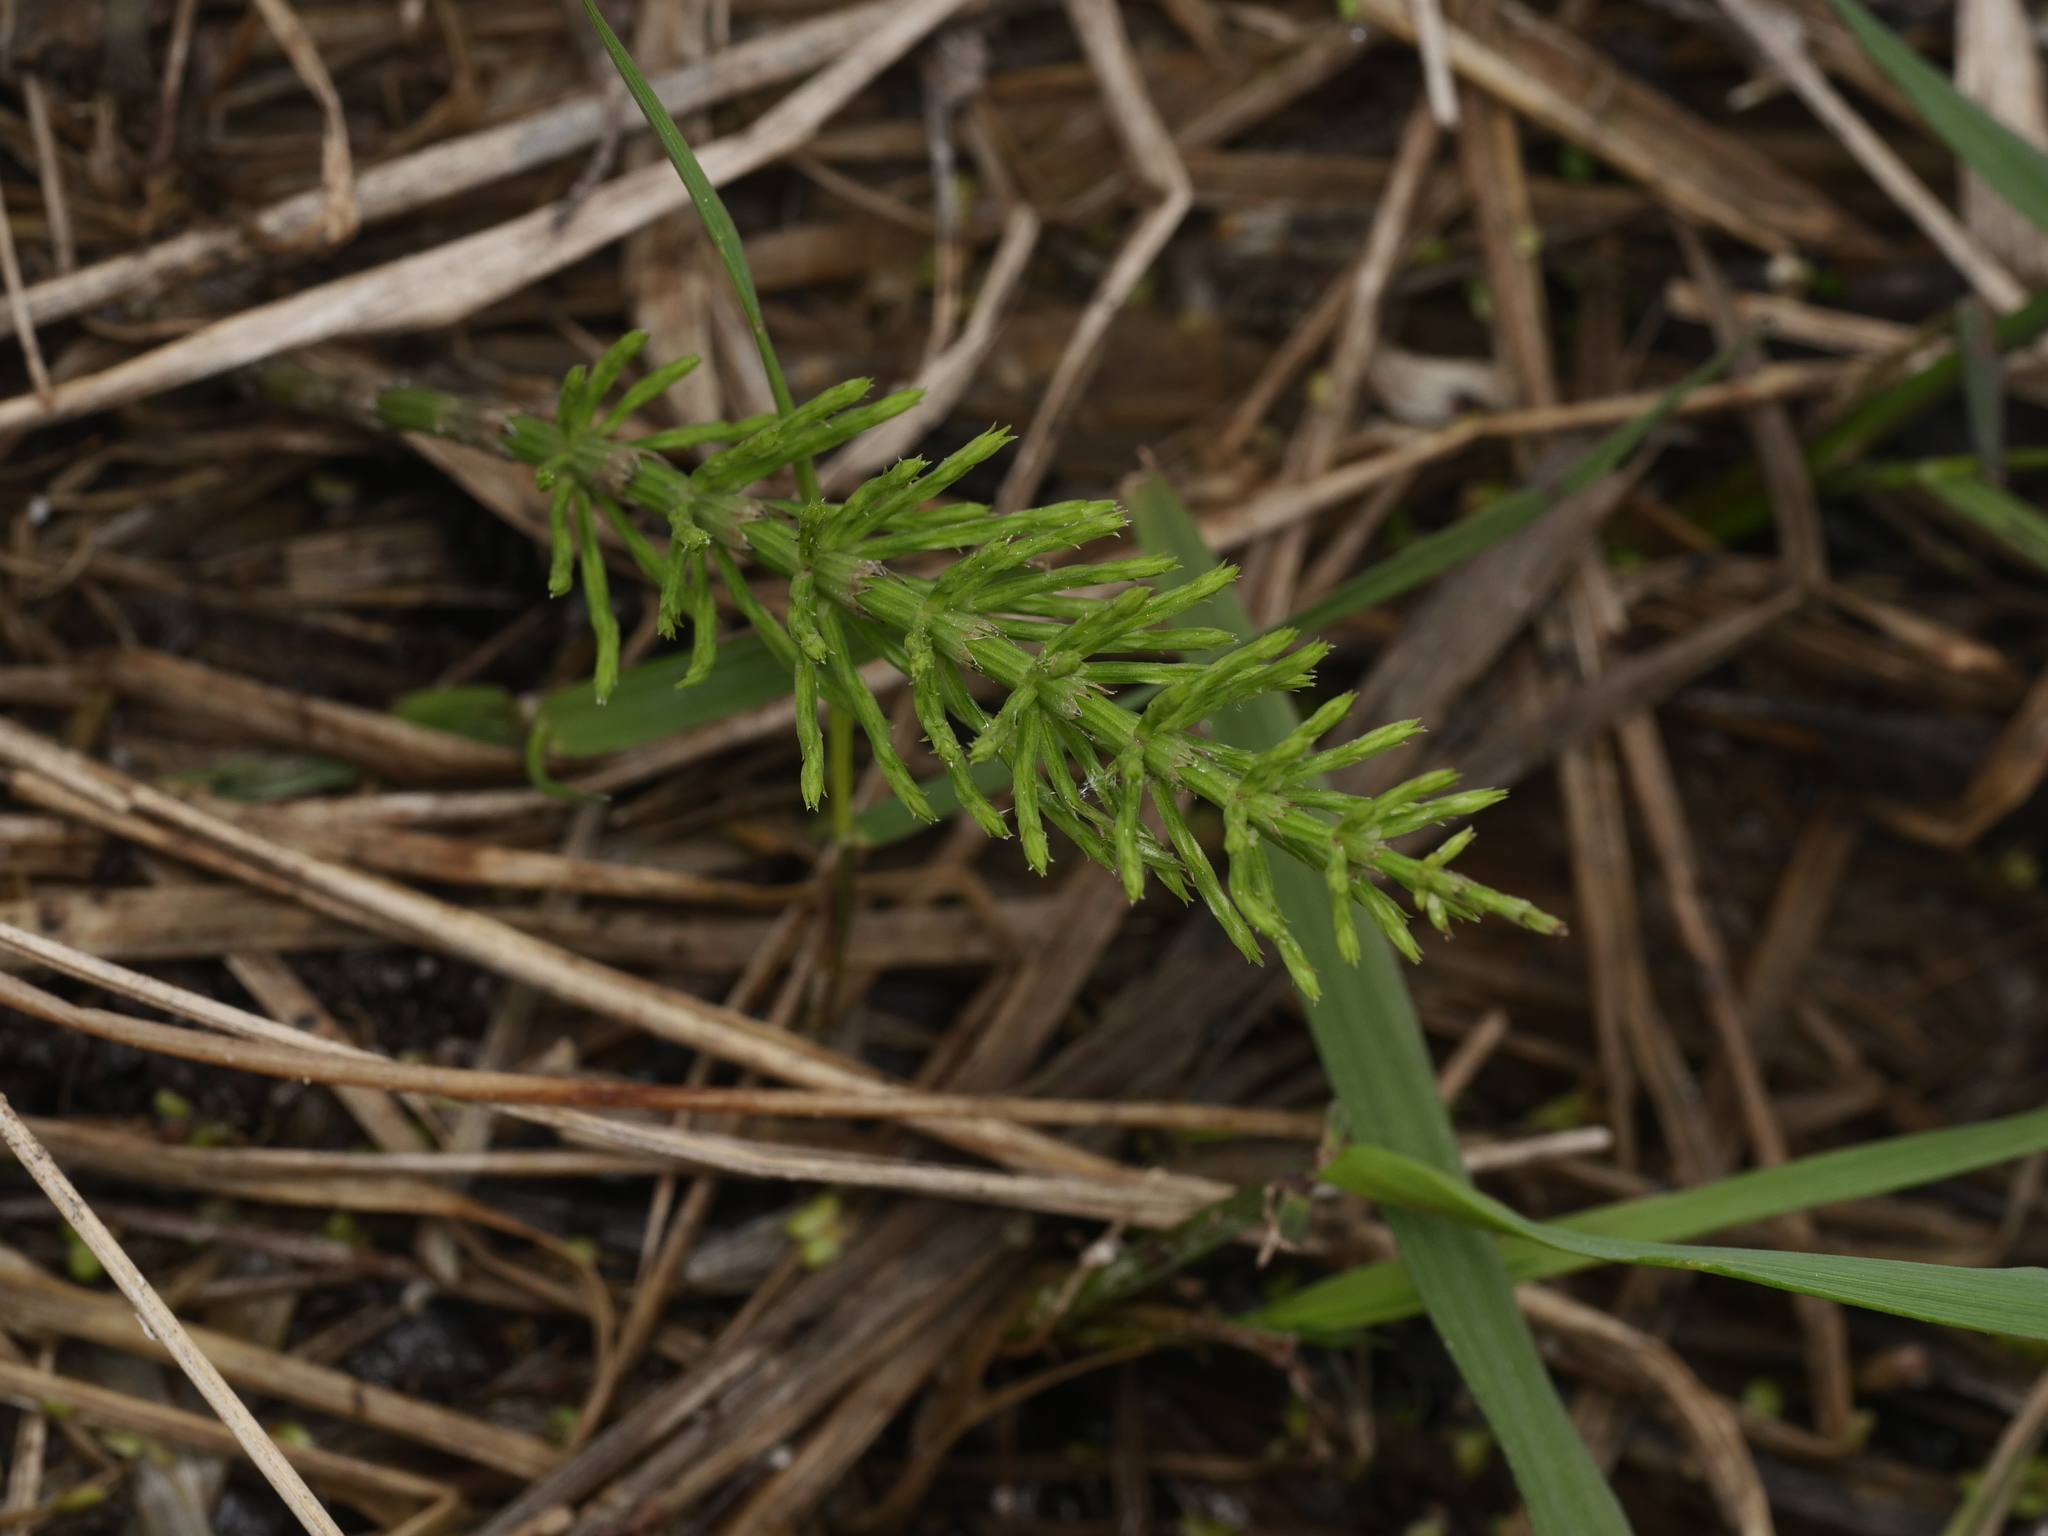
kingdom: Plantae
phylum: Tracheophyta
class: Polypodiopsida
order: Equisetales
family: Equisetaceae
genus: Equisetum
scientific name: Equisetum arvense
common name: Field horsetail
